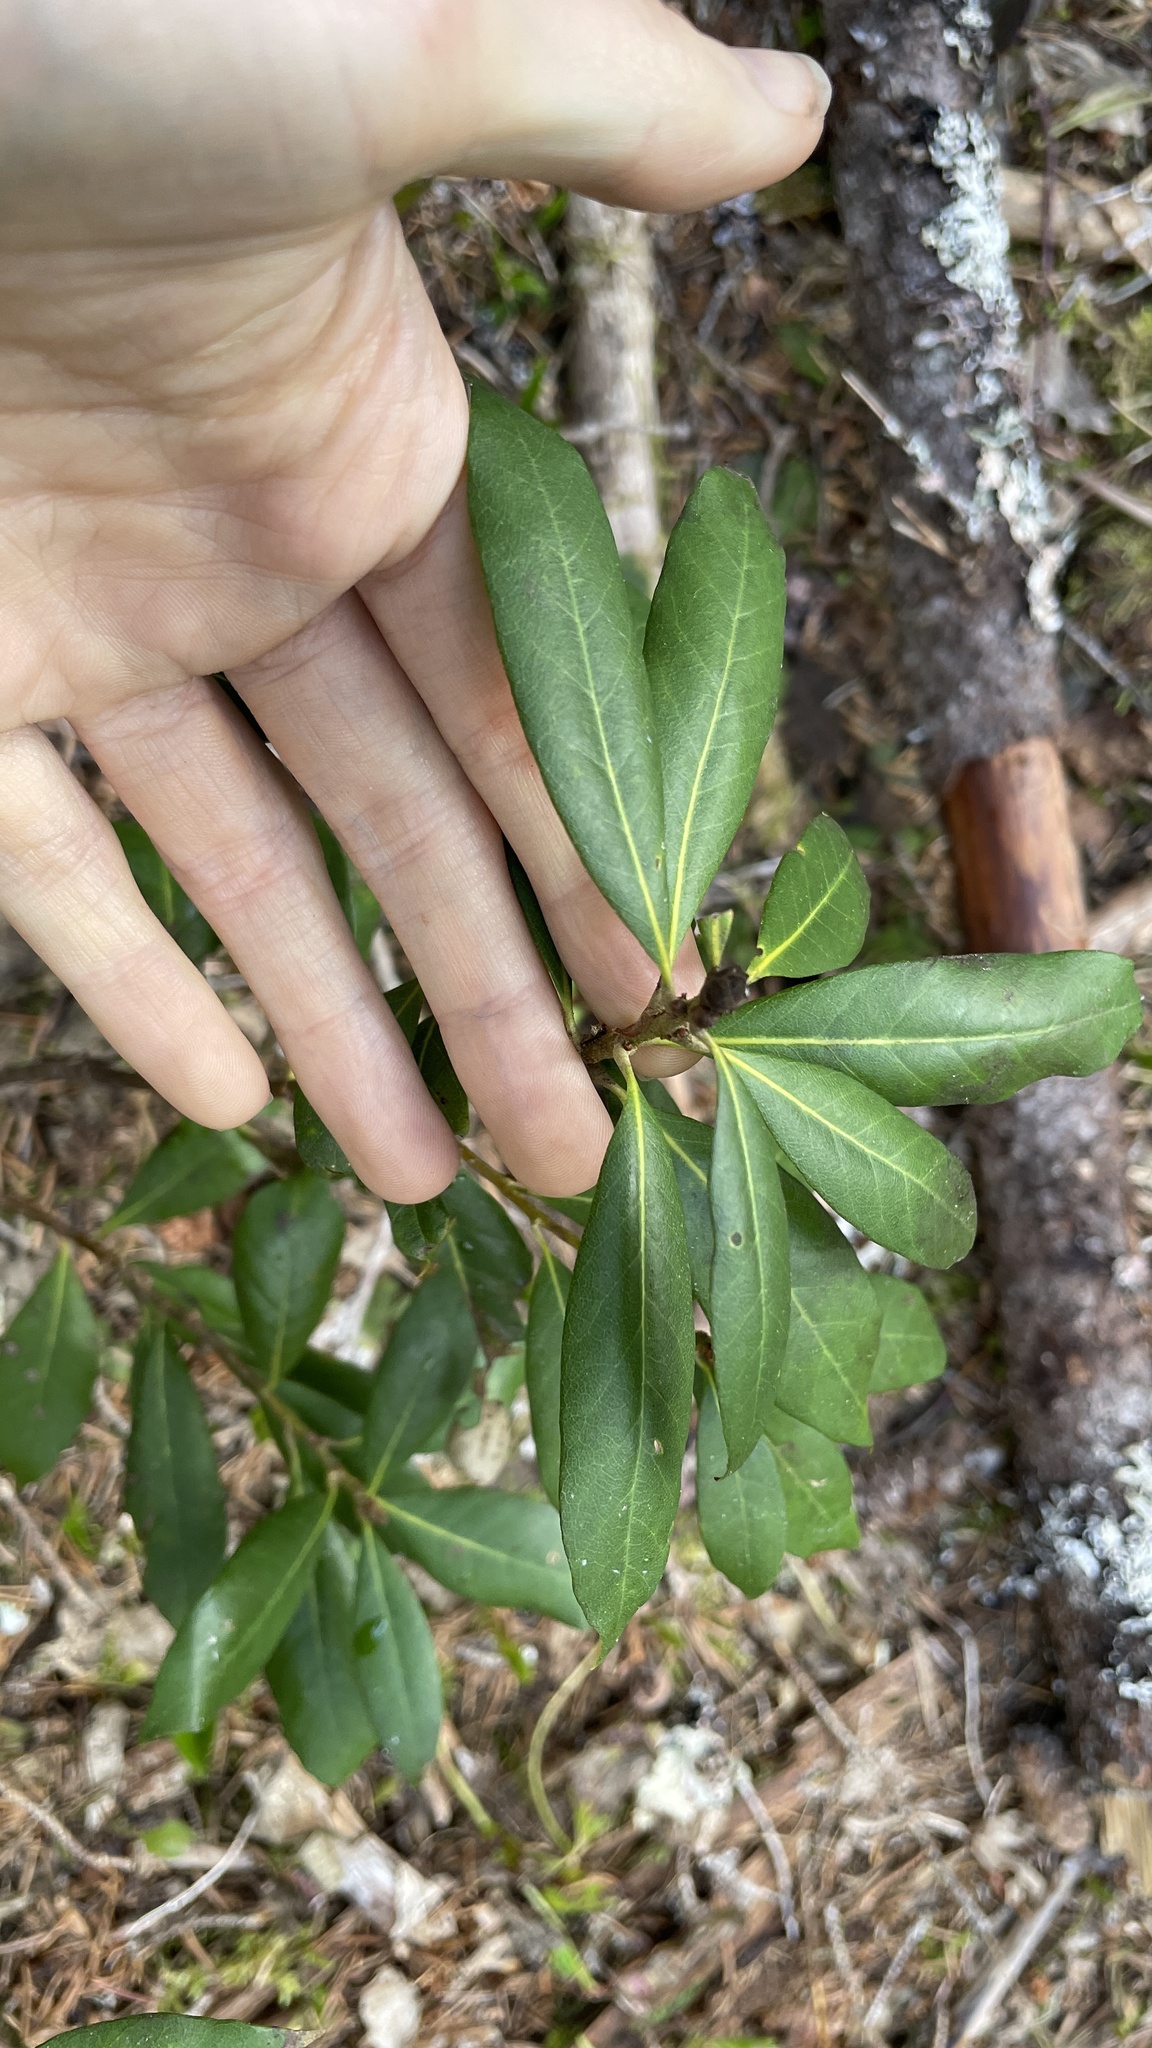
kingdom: Plantae
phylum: Tracheophyta
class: Magnoliopsida
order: Fagales
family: Fagaceae
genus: Chrysolepis
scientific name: Chrysolepis chrysophylla
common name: Giant chinquapin
